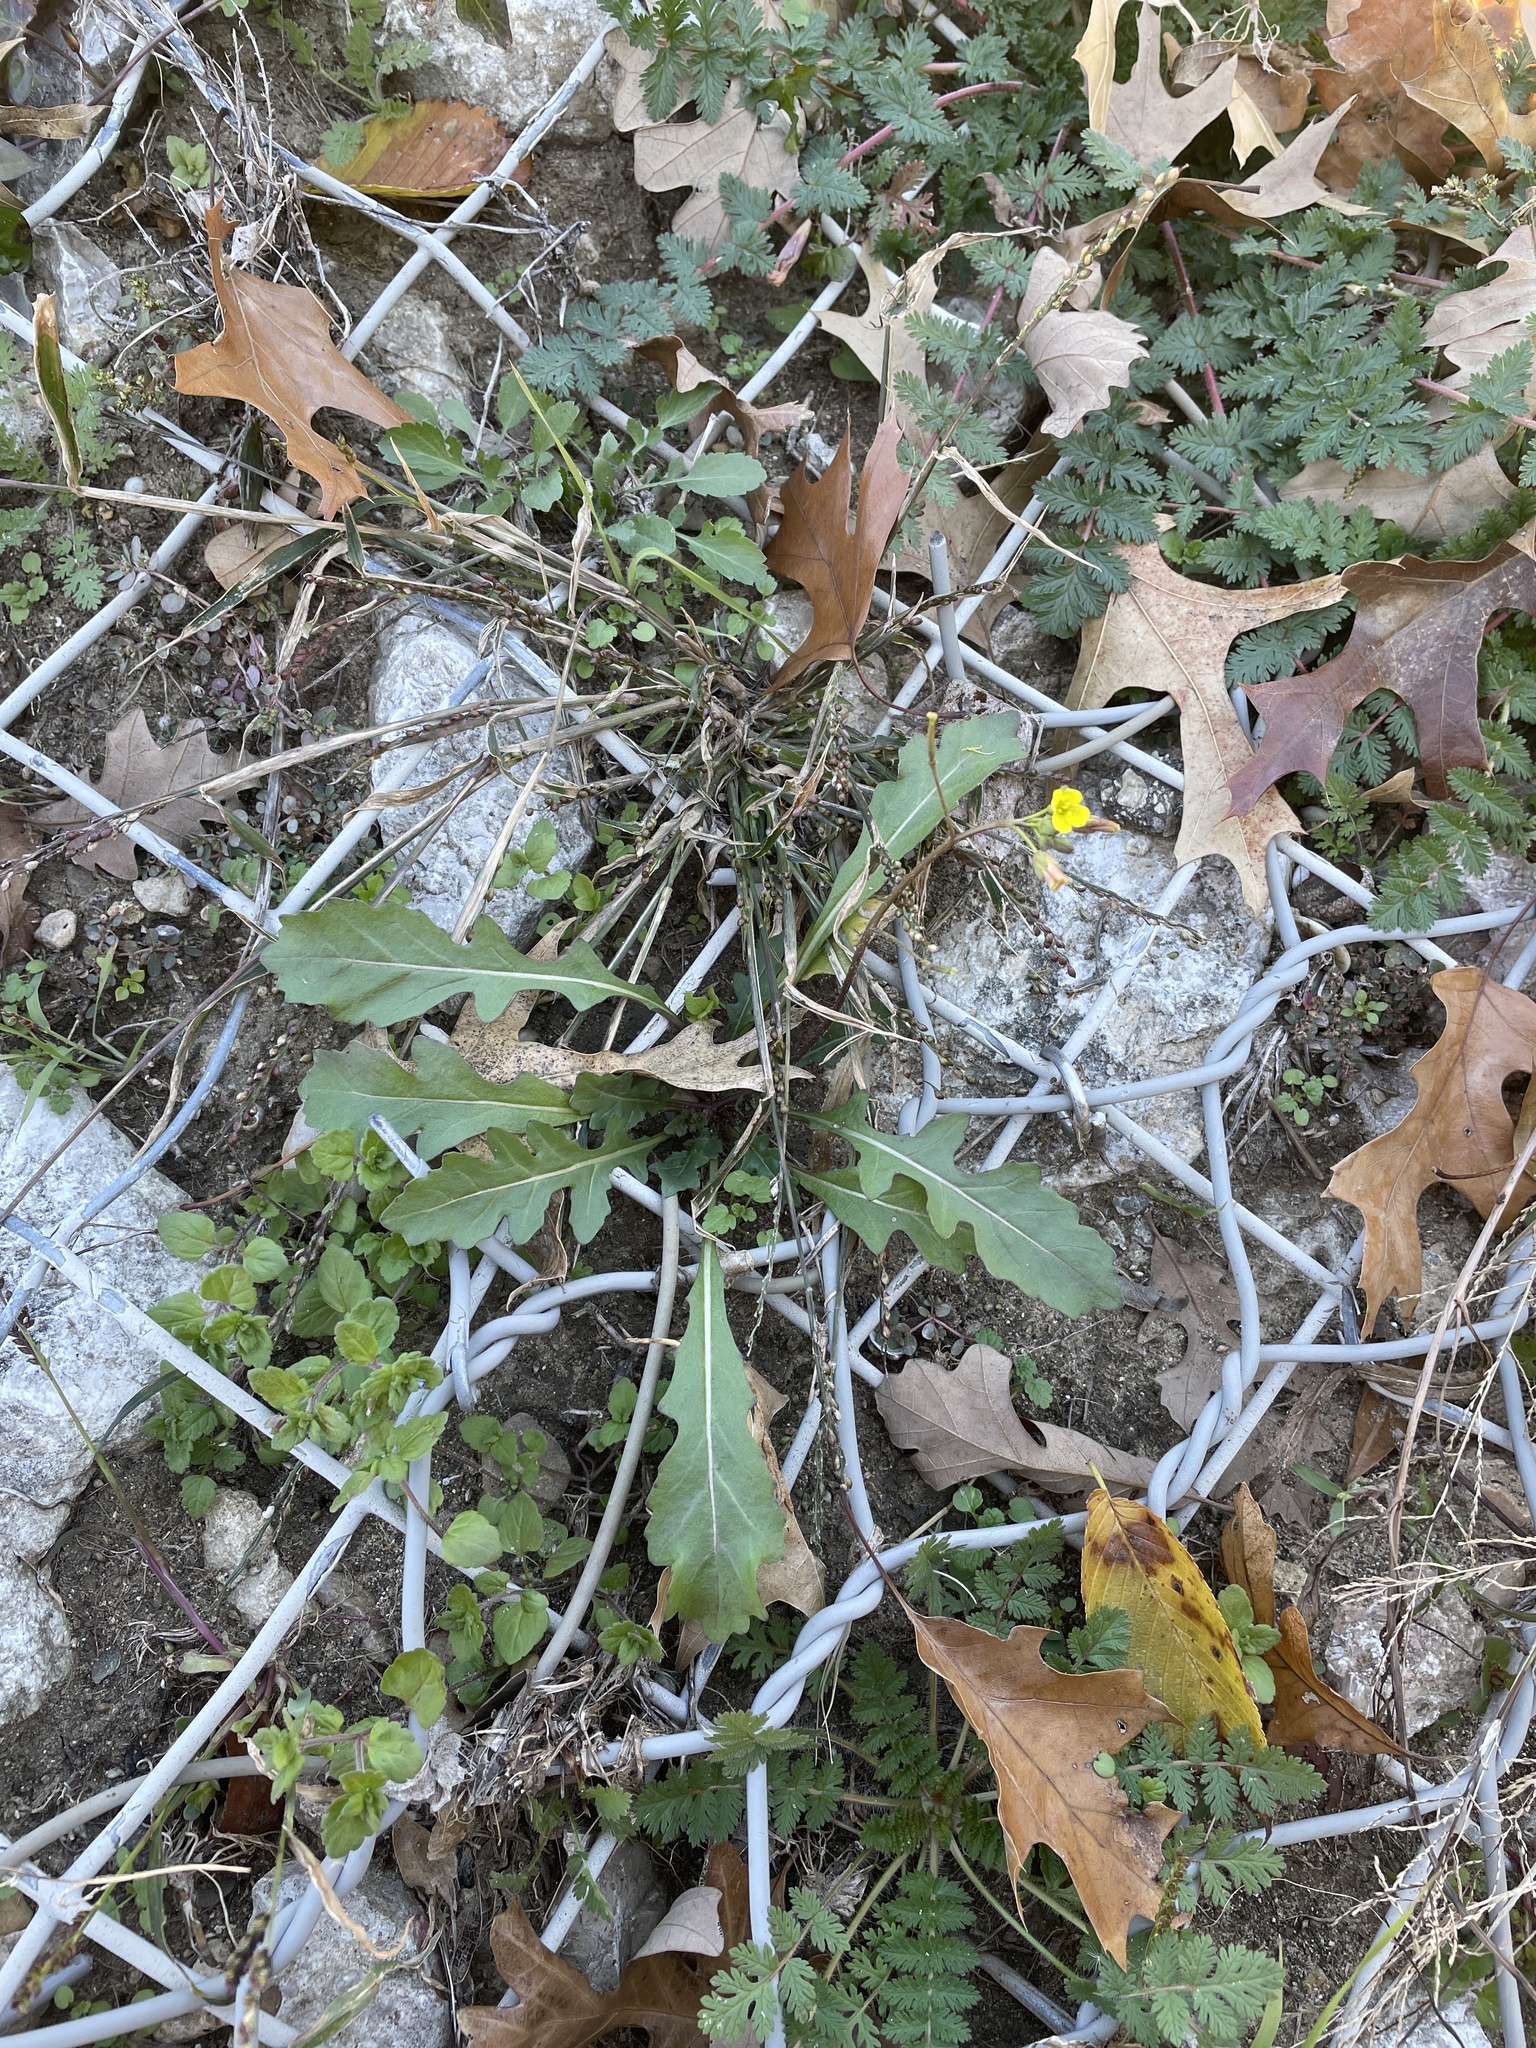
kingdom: Plantae
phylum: Tracheophyta
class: Magnoliopsida
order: Brassicales
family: Brassicaceae
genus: Diplotaxis
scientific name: Diplotaxis muralis
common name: Annual wall-rocket
